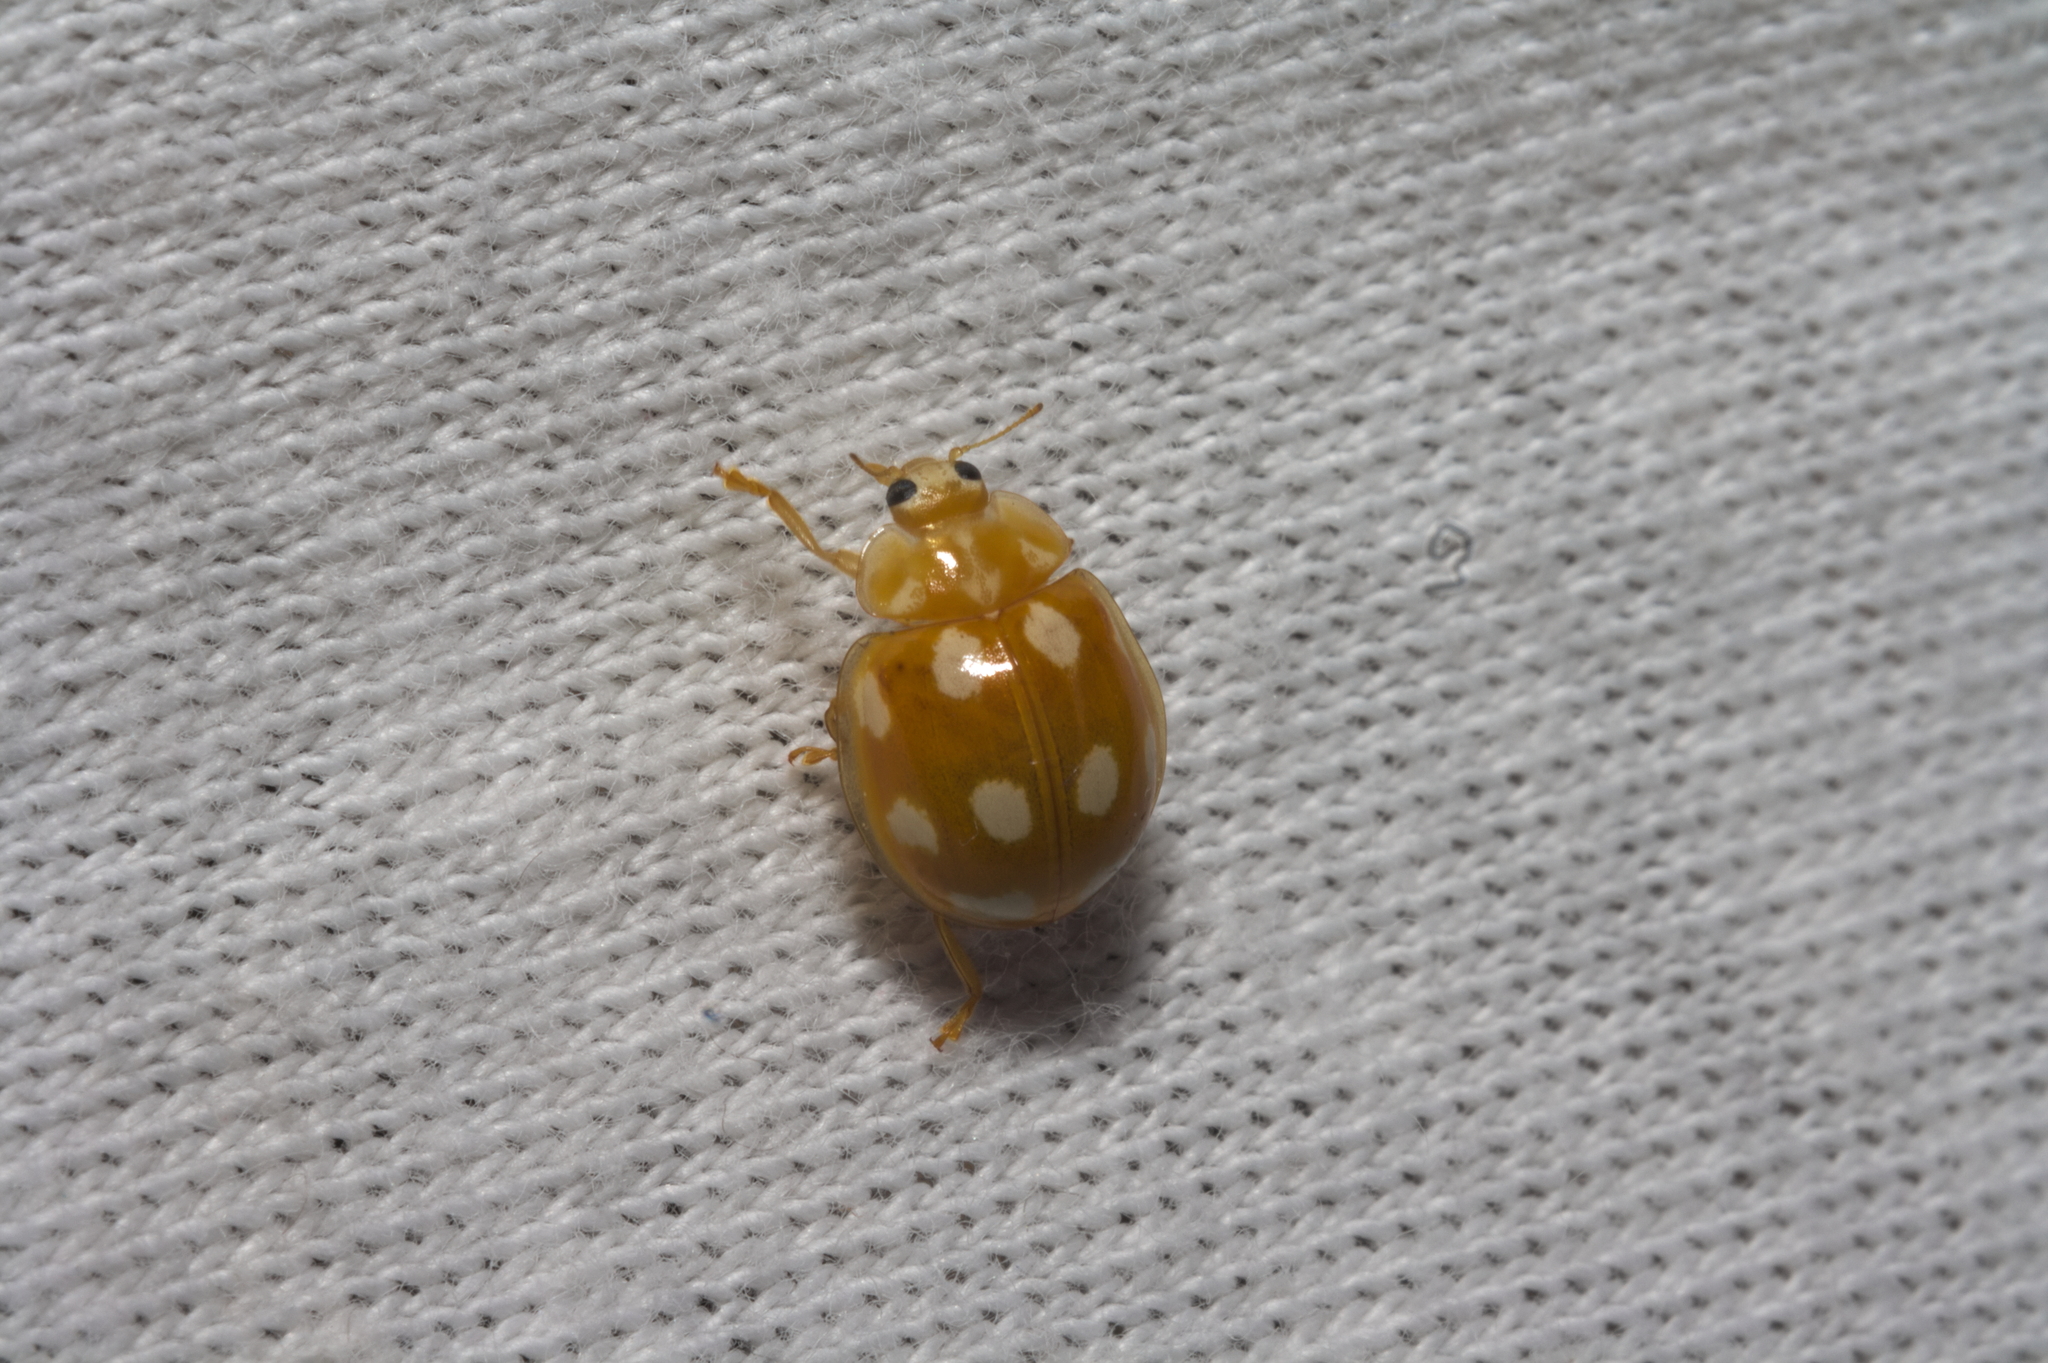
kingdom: Animalia
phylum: Arthropoda
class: Insecta
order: Coleoptera
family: Coccinellidae
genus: Calvia
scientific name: Calvia decemguttata
